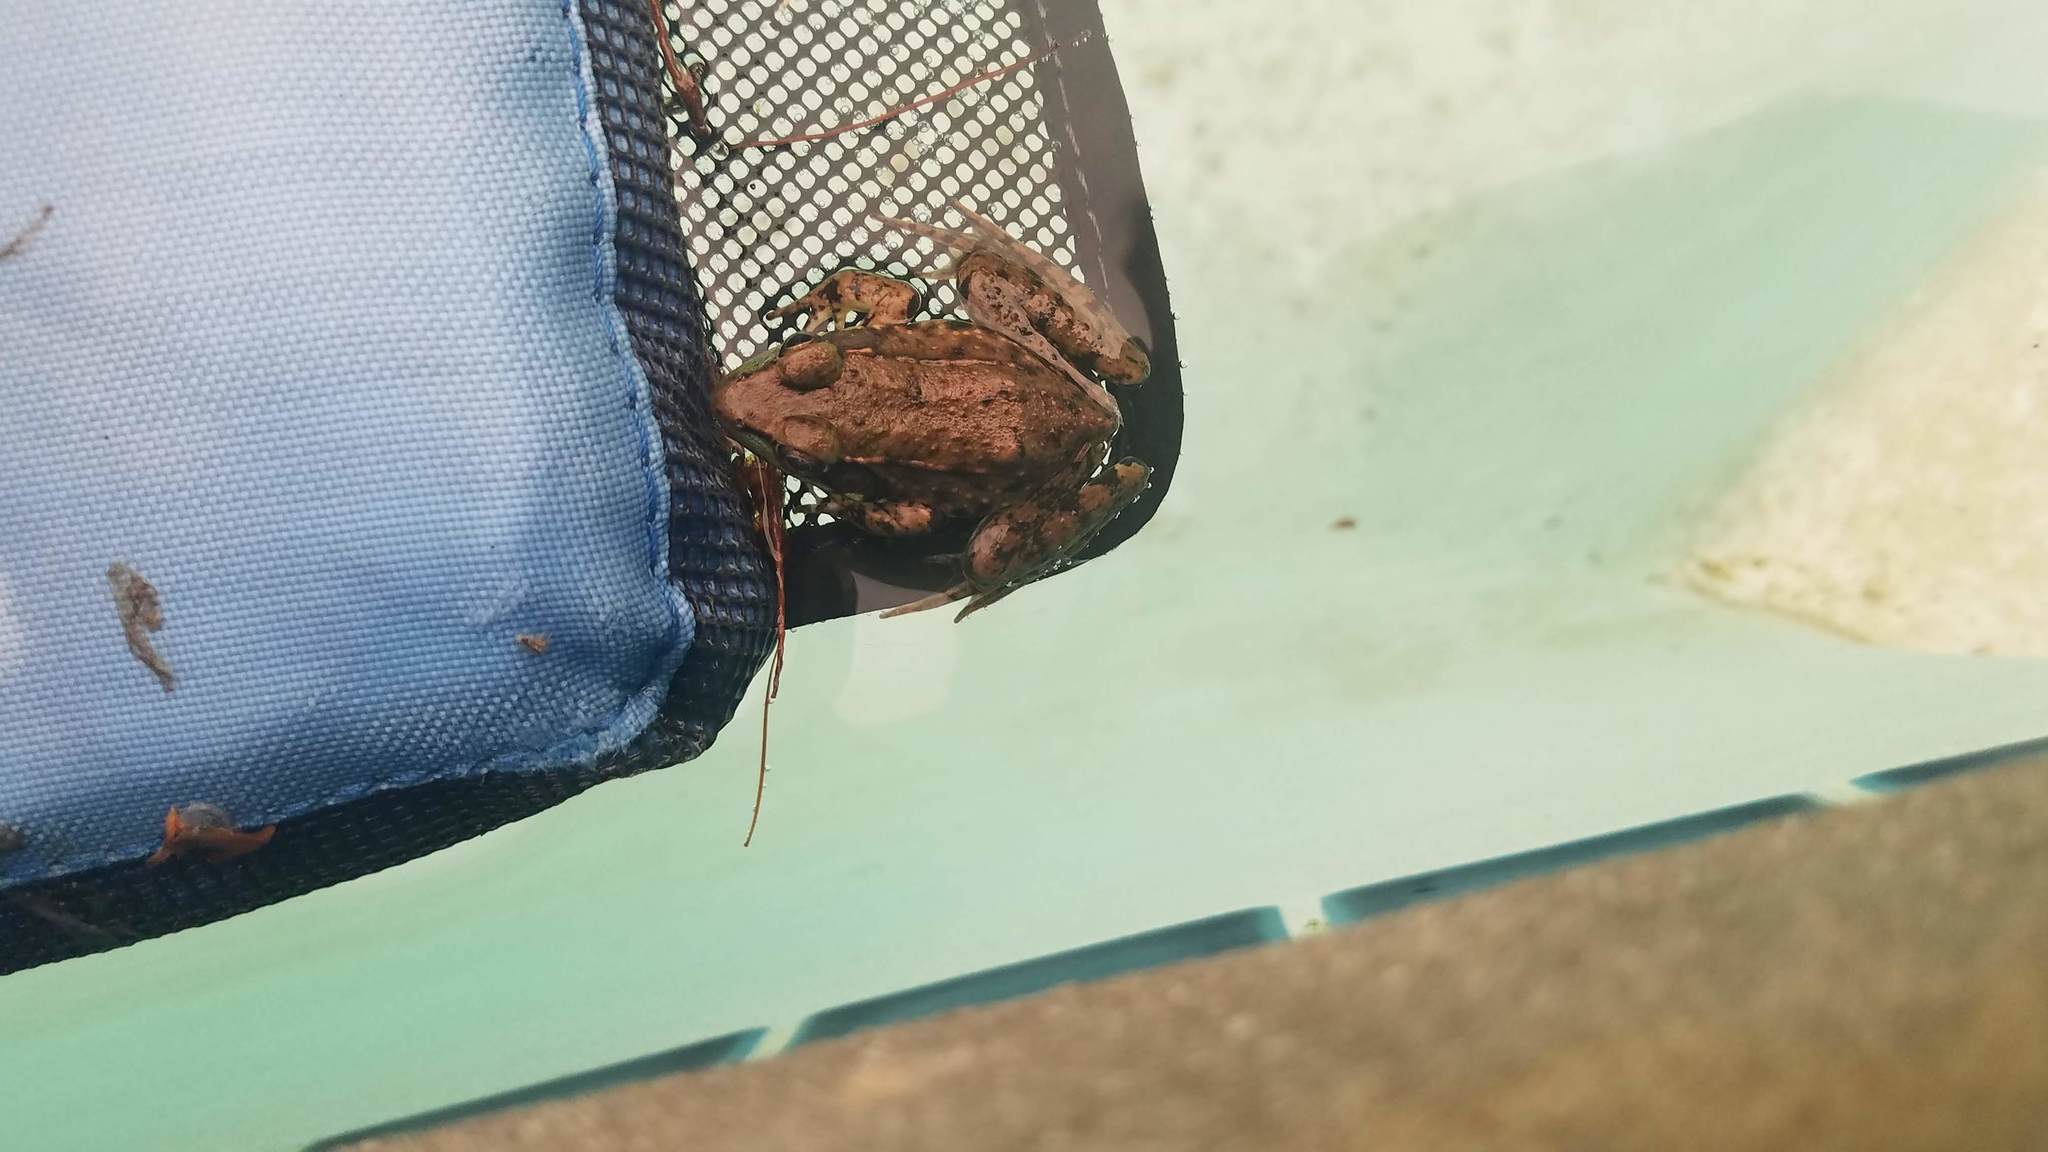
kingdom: Animalia
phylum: Chordata
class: Amphibia
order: Anura
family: Ranidae
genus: Lithobates
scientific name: Lithobates sylvaticus
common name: Wood frog
